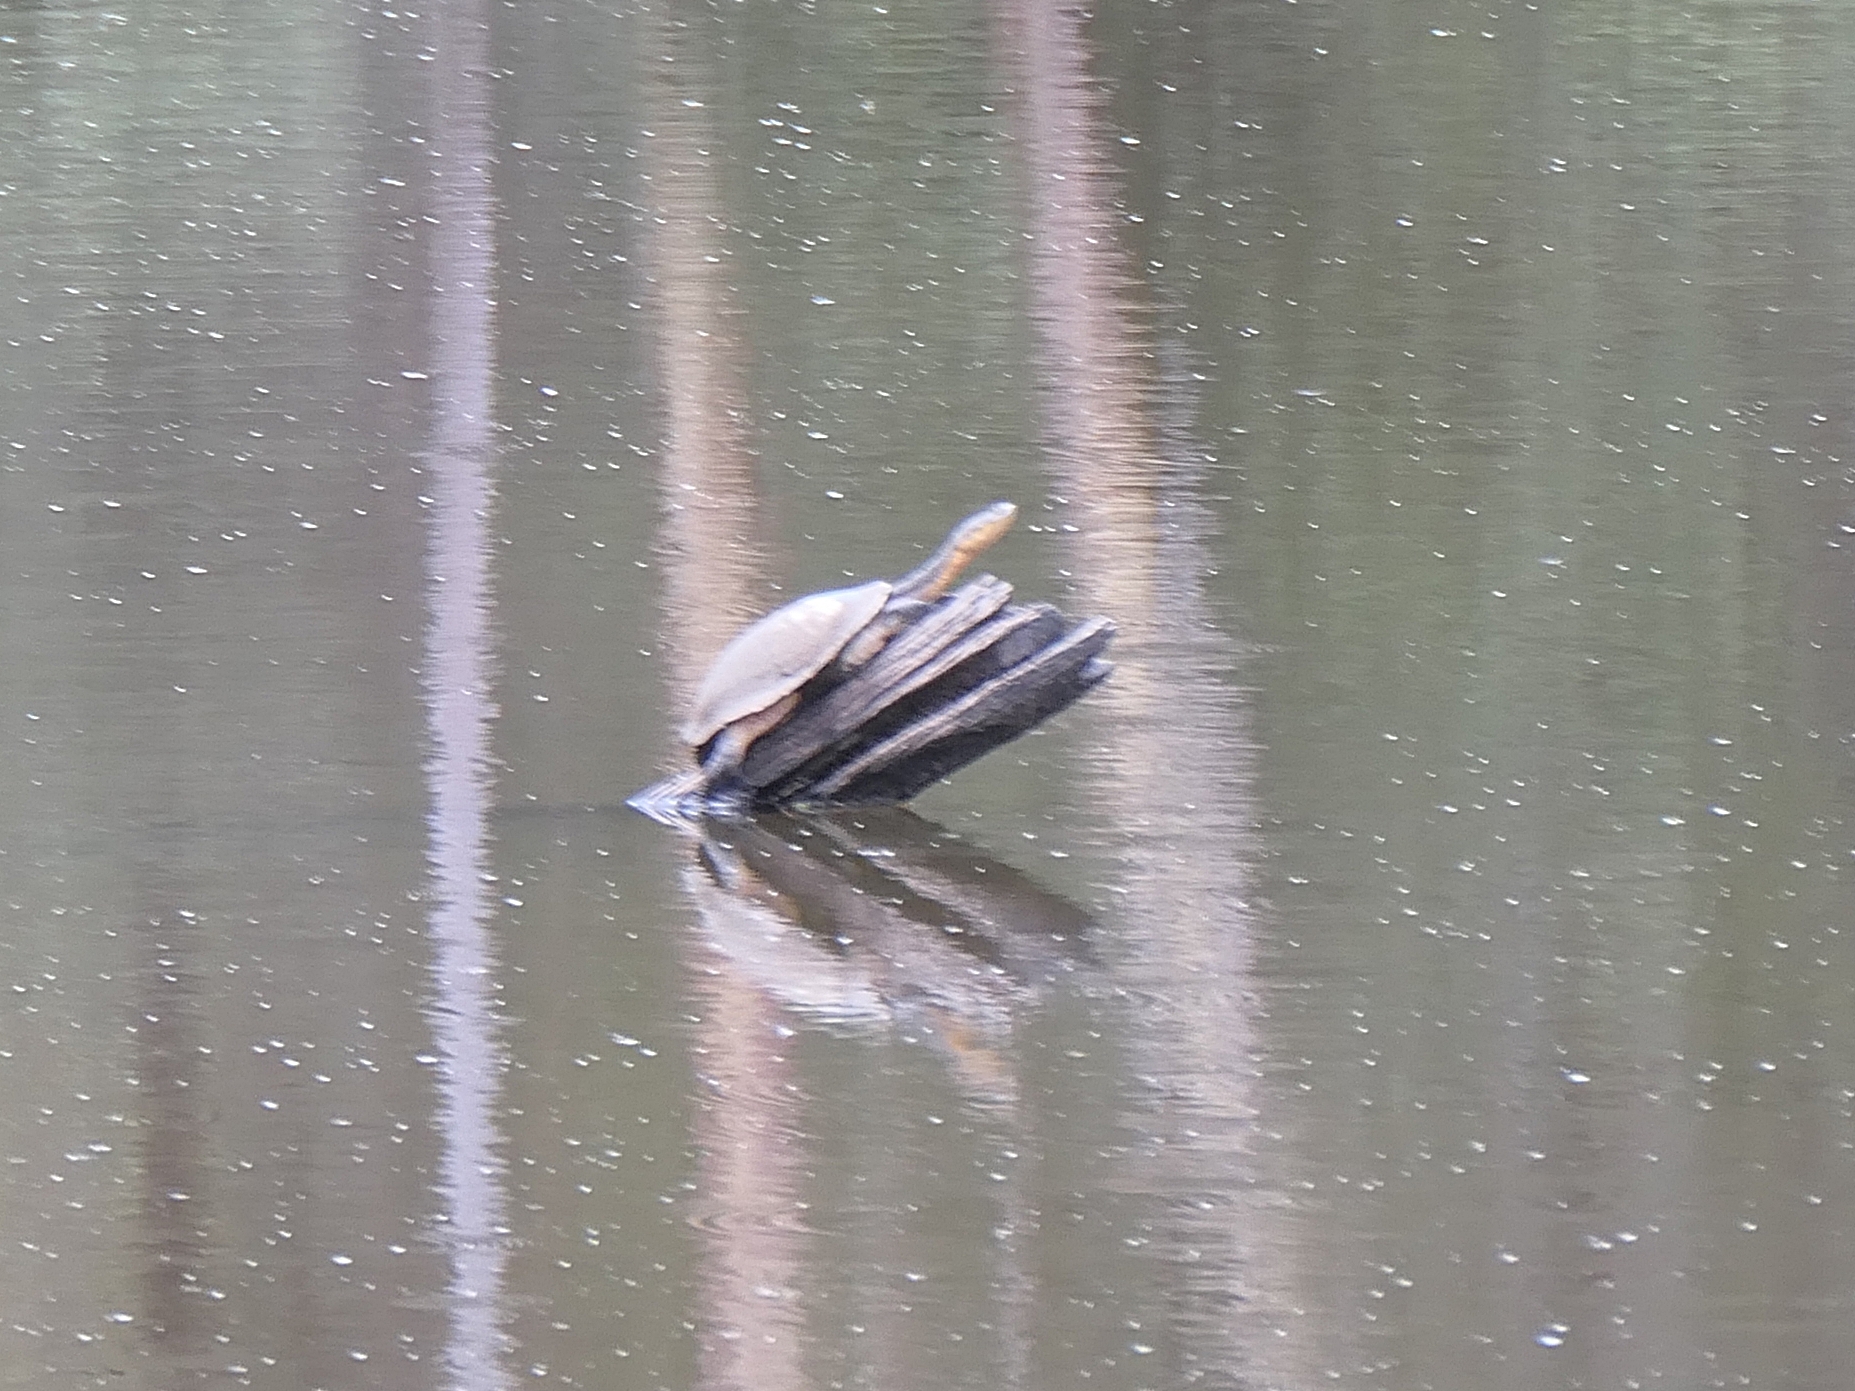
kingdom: Animalia
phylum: Chordata
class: Testudines
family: Chelidae
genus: Chelodina
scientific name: Chelodina longicollis
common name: Eastern snake-necked turtle
